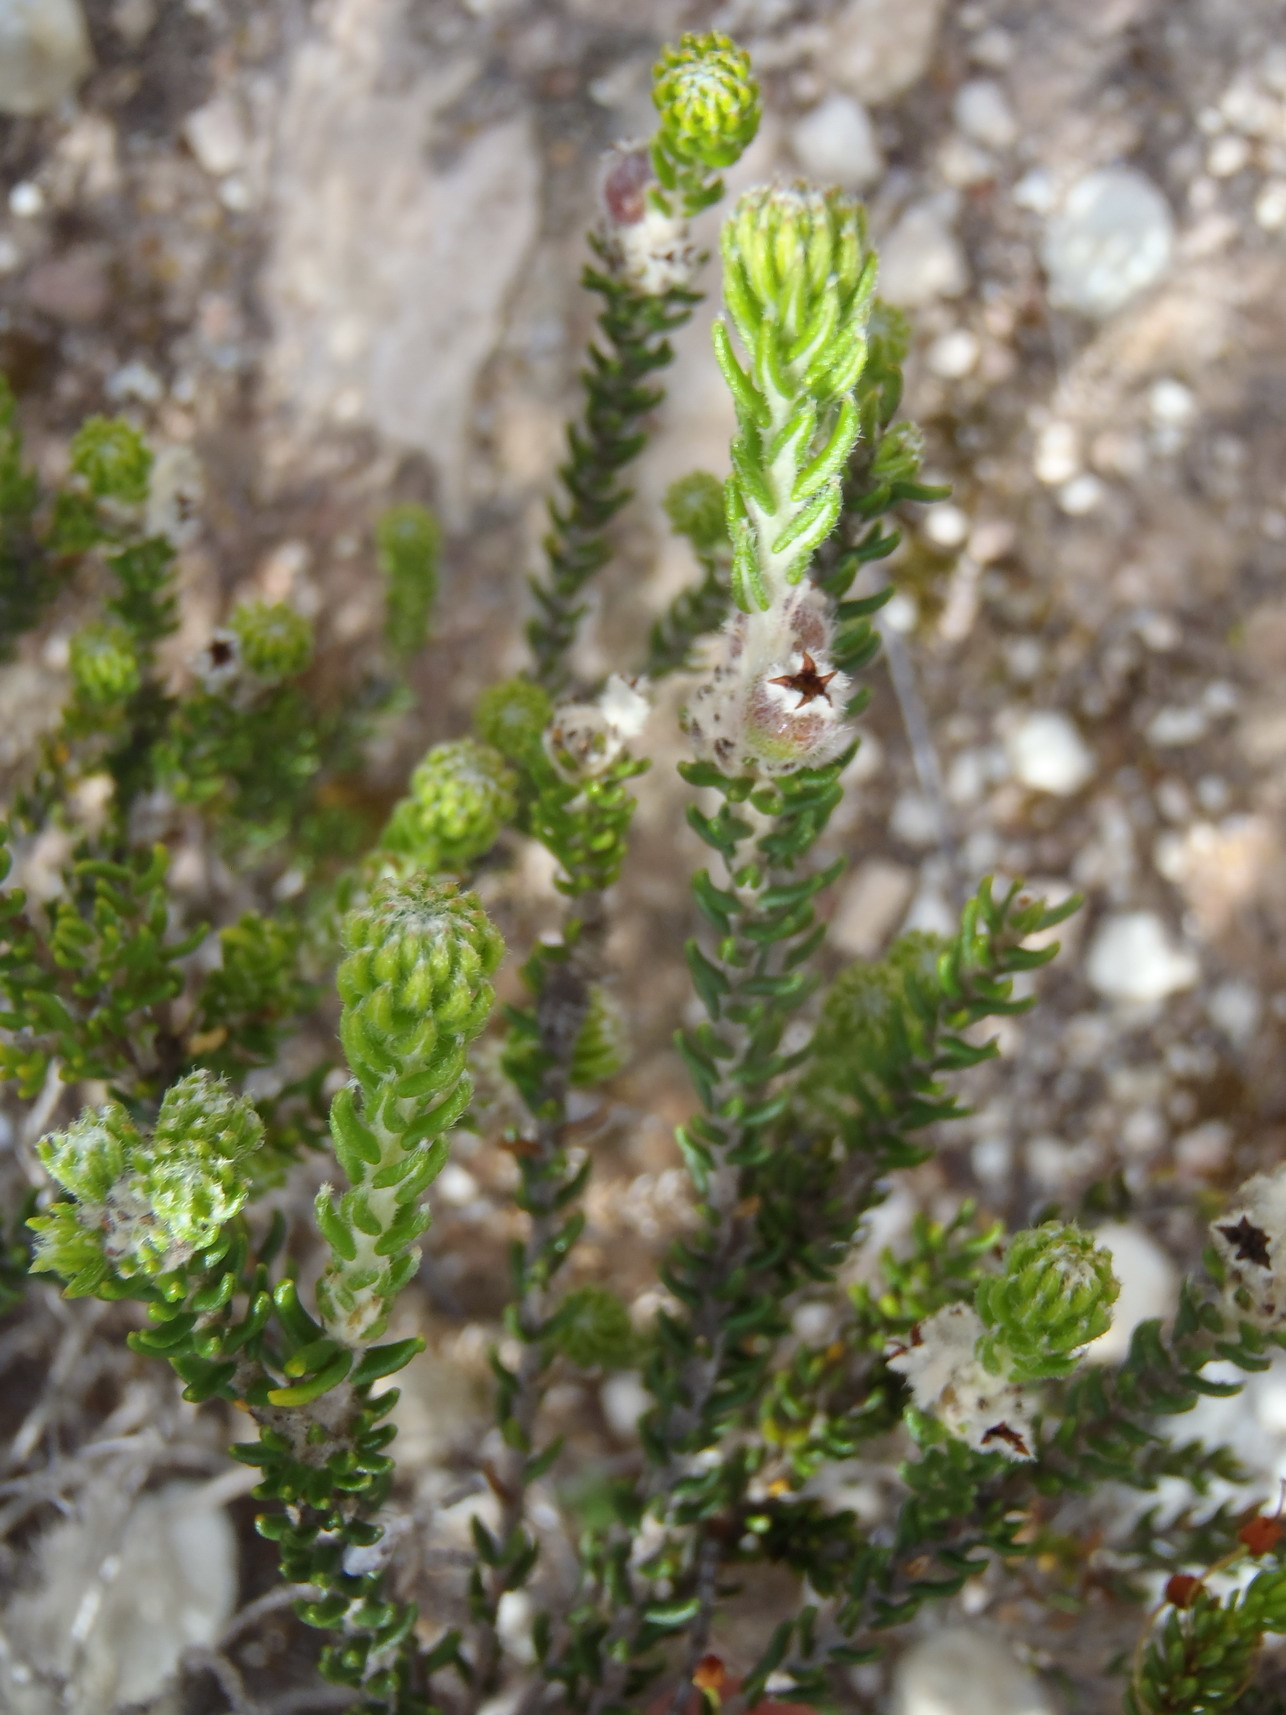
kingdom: Plantae
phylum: Tracheophyta
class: Magnoliopsida
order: Rosales
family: Rhamnaceae
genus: Phylica
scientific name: Phylica ericoides
